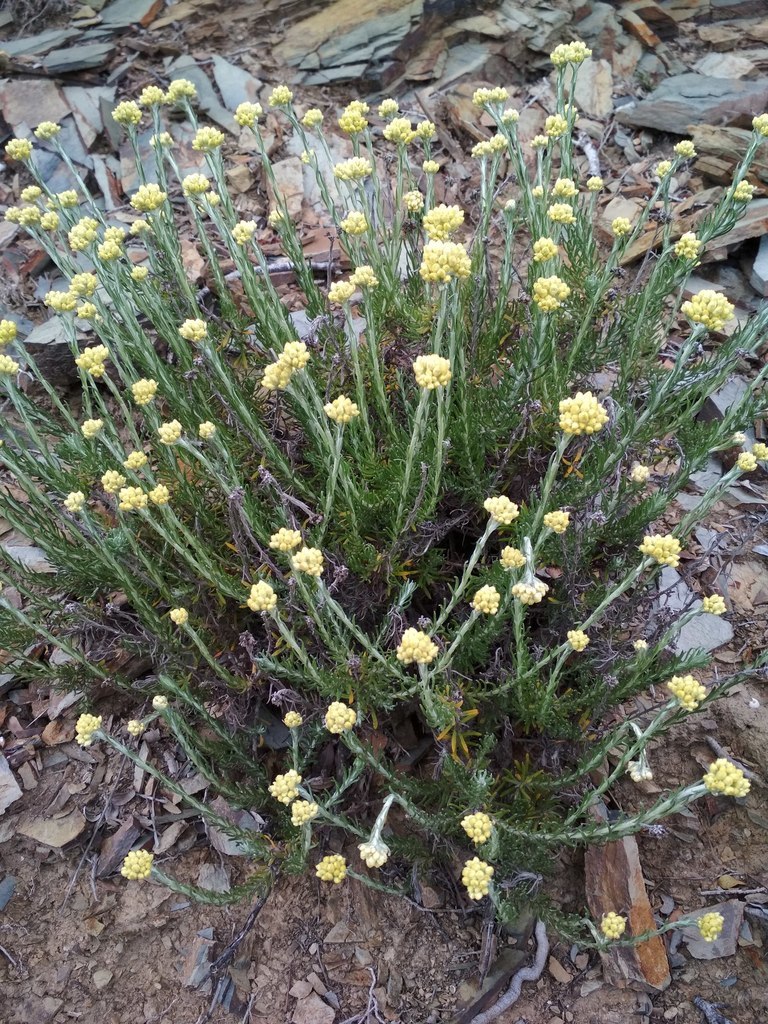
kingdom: Plantae
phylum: Tracheophyta
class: Magnoliopsida
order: Asterales
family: Asteraceae
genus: Helichrysum
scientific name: Helichrysum stoechas
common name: Goldilocks
